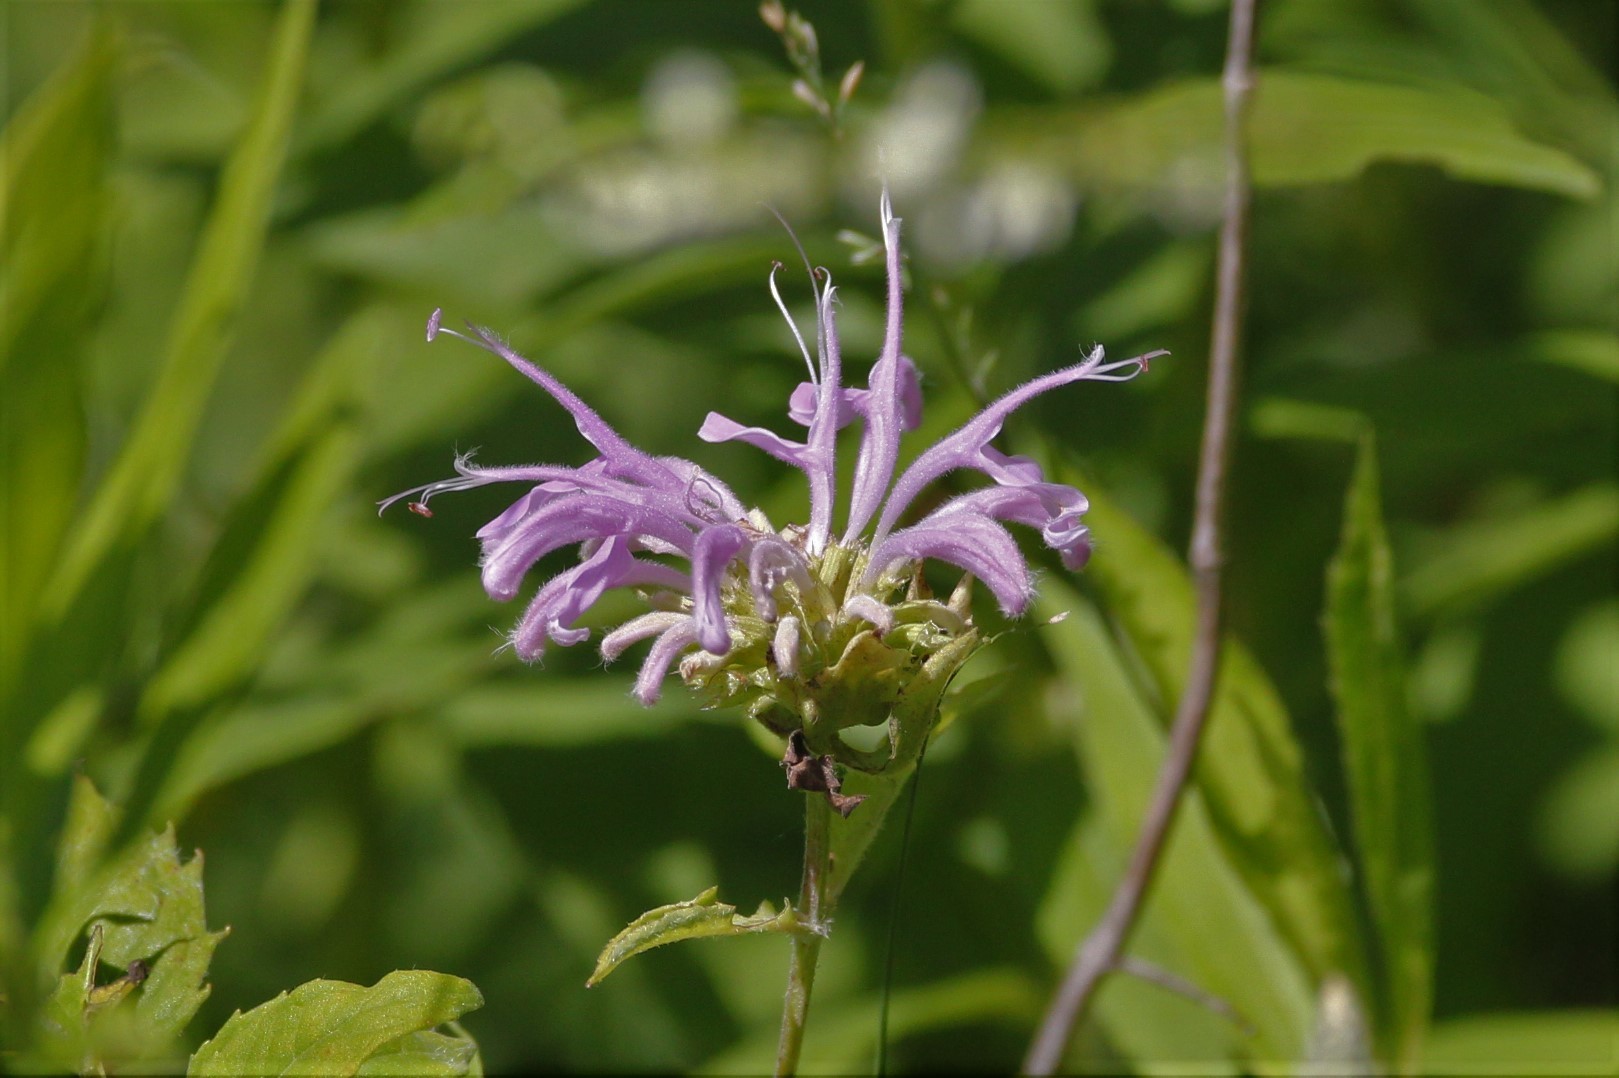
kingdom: Plantae
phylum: Tracheophyta
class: Magnoliopsida
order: Lamiales
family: Lamiaceae
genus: Monarda
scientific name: Monarda fistulosa
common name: Purple beebalm
